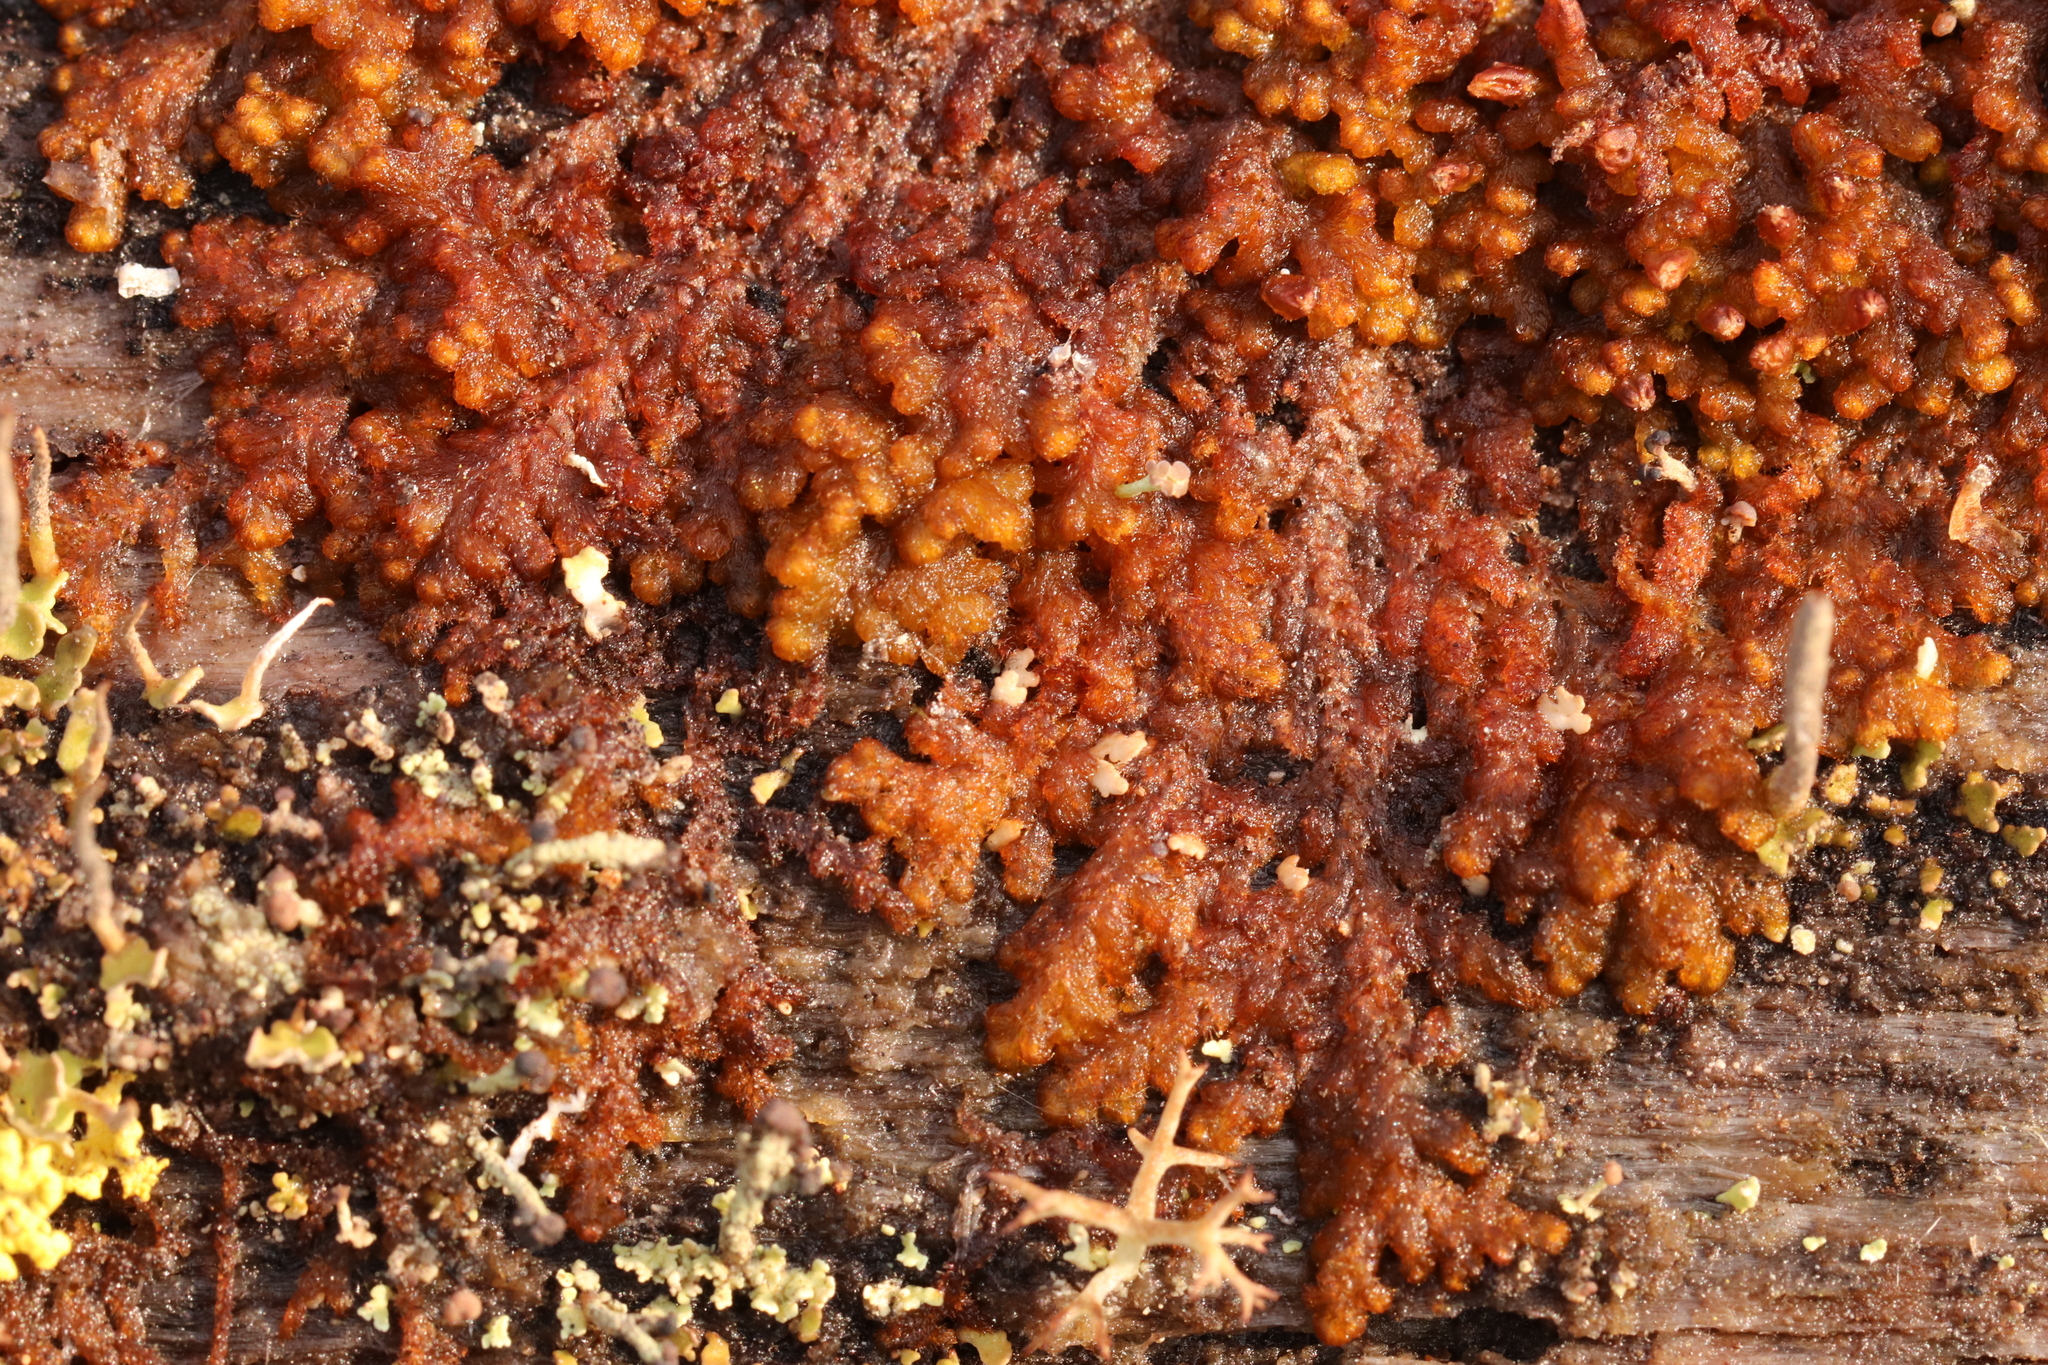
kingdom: Plantae
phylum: Marchantiophyta
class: Jungermanniopsida
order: Ptilidiales
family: Ptilidiaceae
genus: Ptilidium
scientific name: Ptilidium pulcherrimum
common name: Tree fringewort
